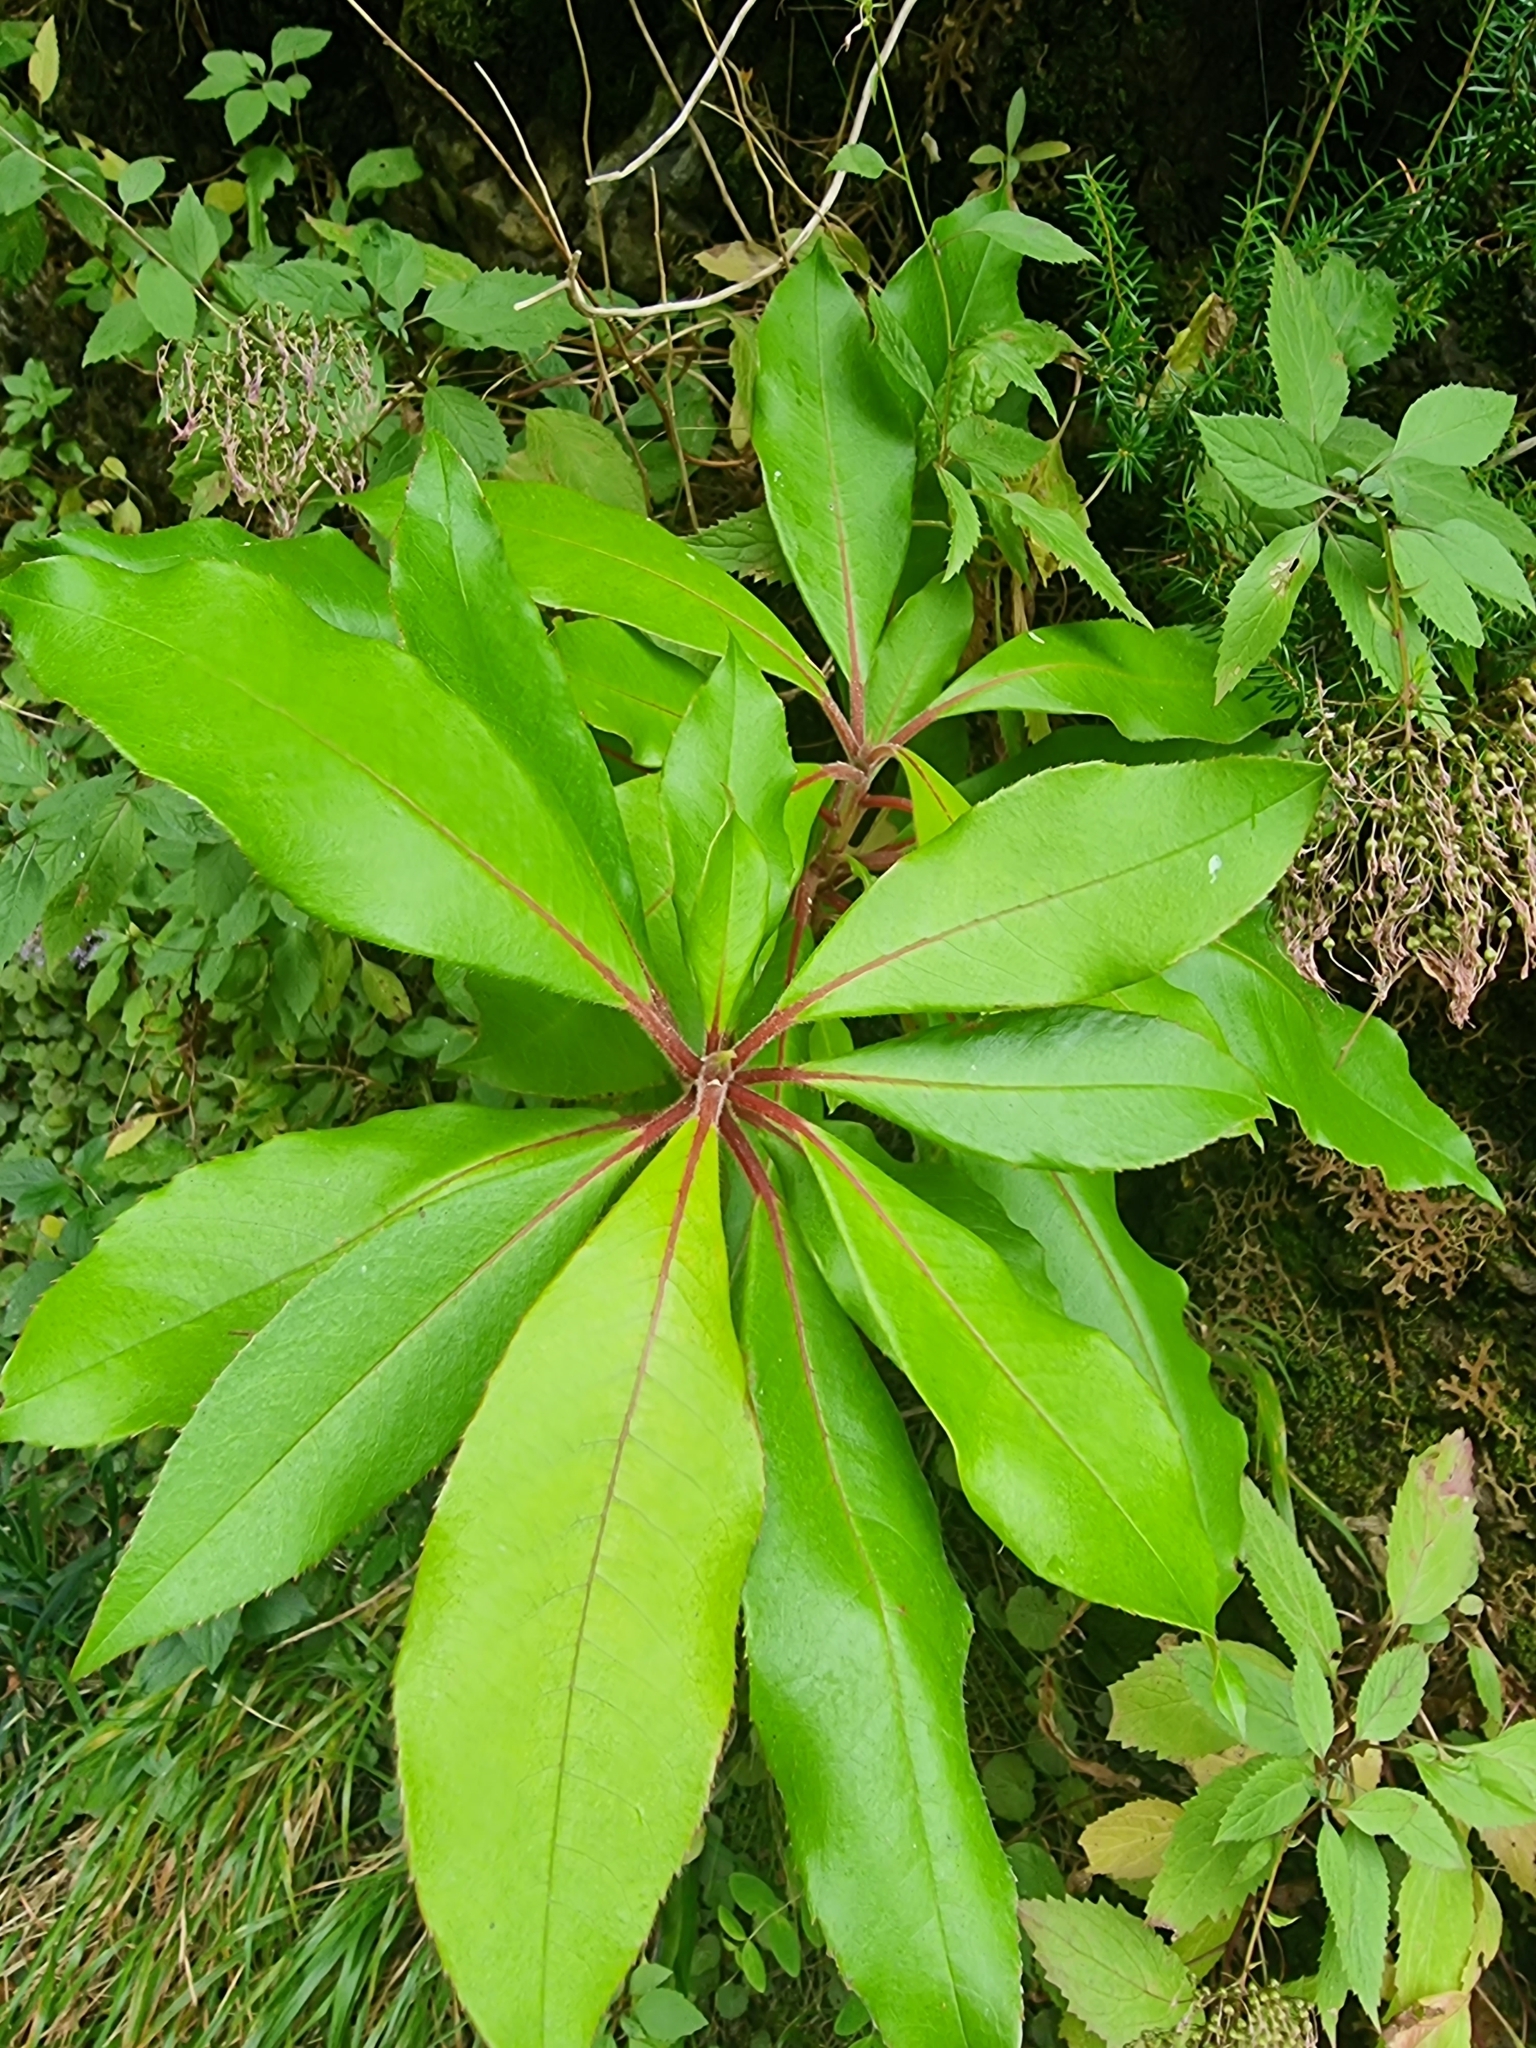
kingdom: Plantae
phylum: Tracheophyta
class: Magnoliopsida
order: Ericales
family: Clethraceae
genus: Clethra
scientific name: Clethra arborea
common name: Lily-of-the-valley-tree
